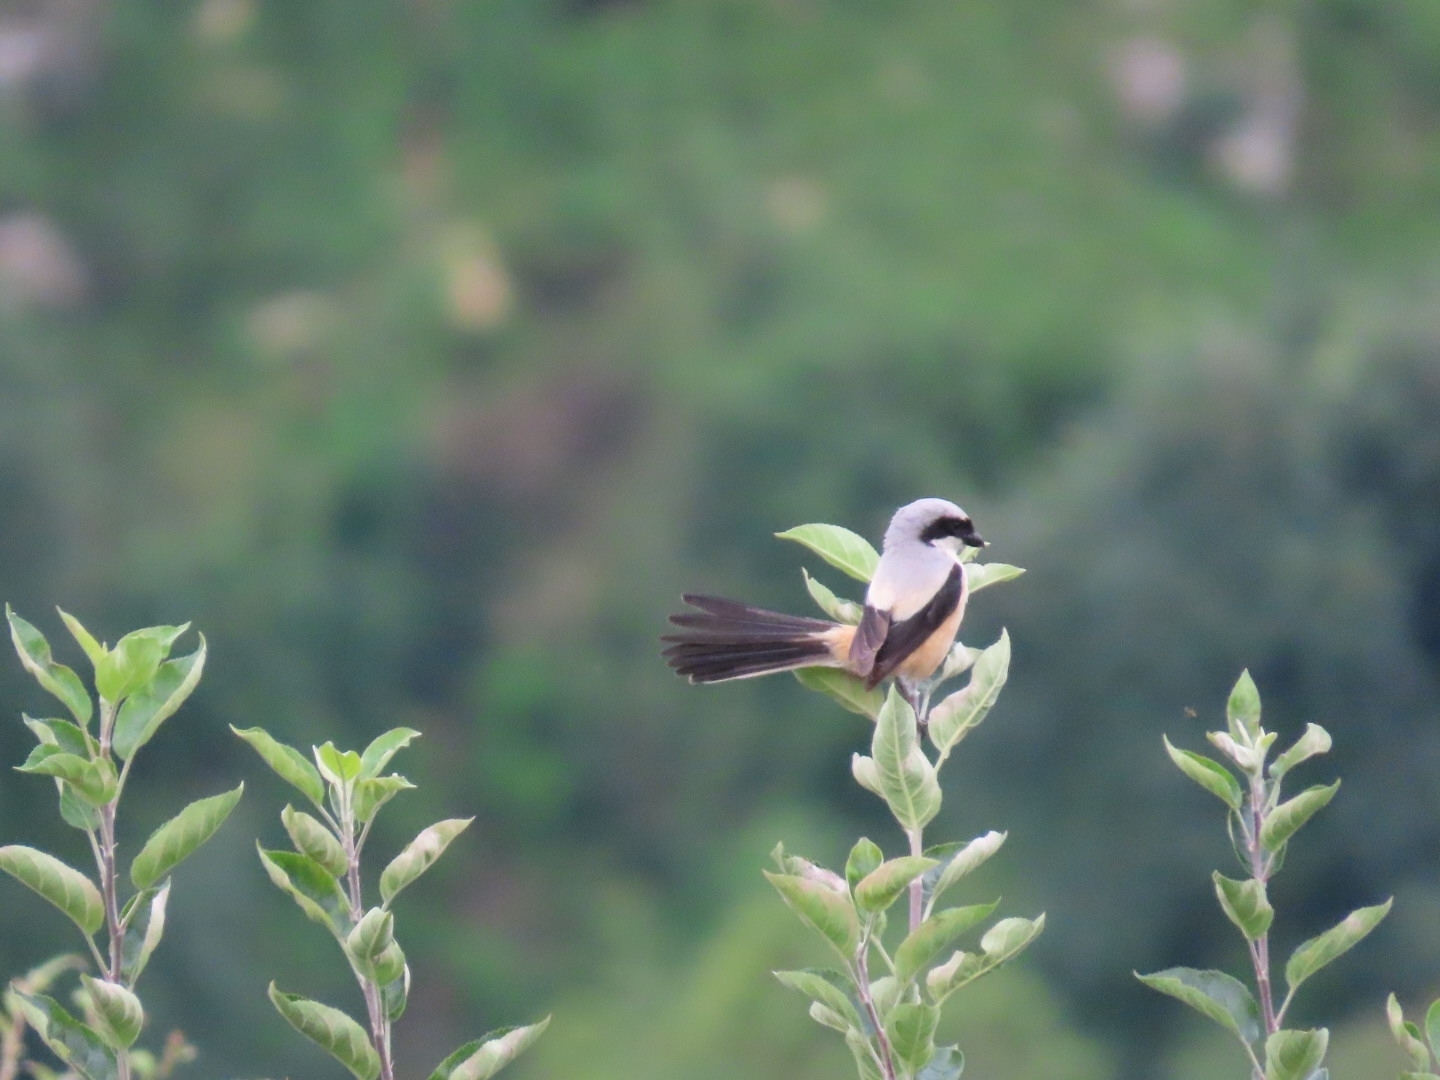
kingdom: Animalia
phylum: Chordata
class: Aves
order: Passeriformes
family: Laniidae
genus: Lanius
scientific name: Lanius schach
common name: Long-tailed shrike
